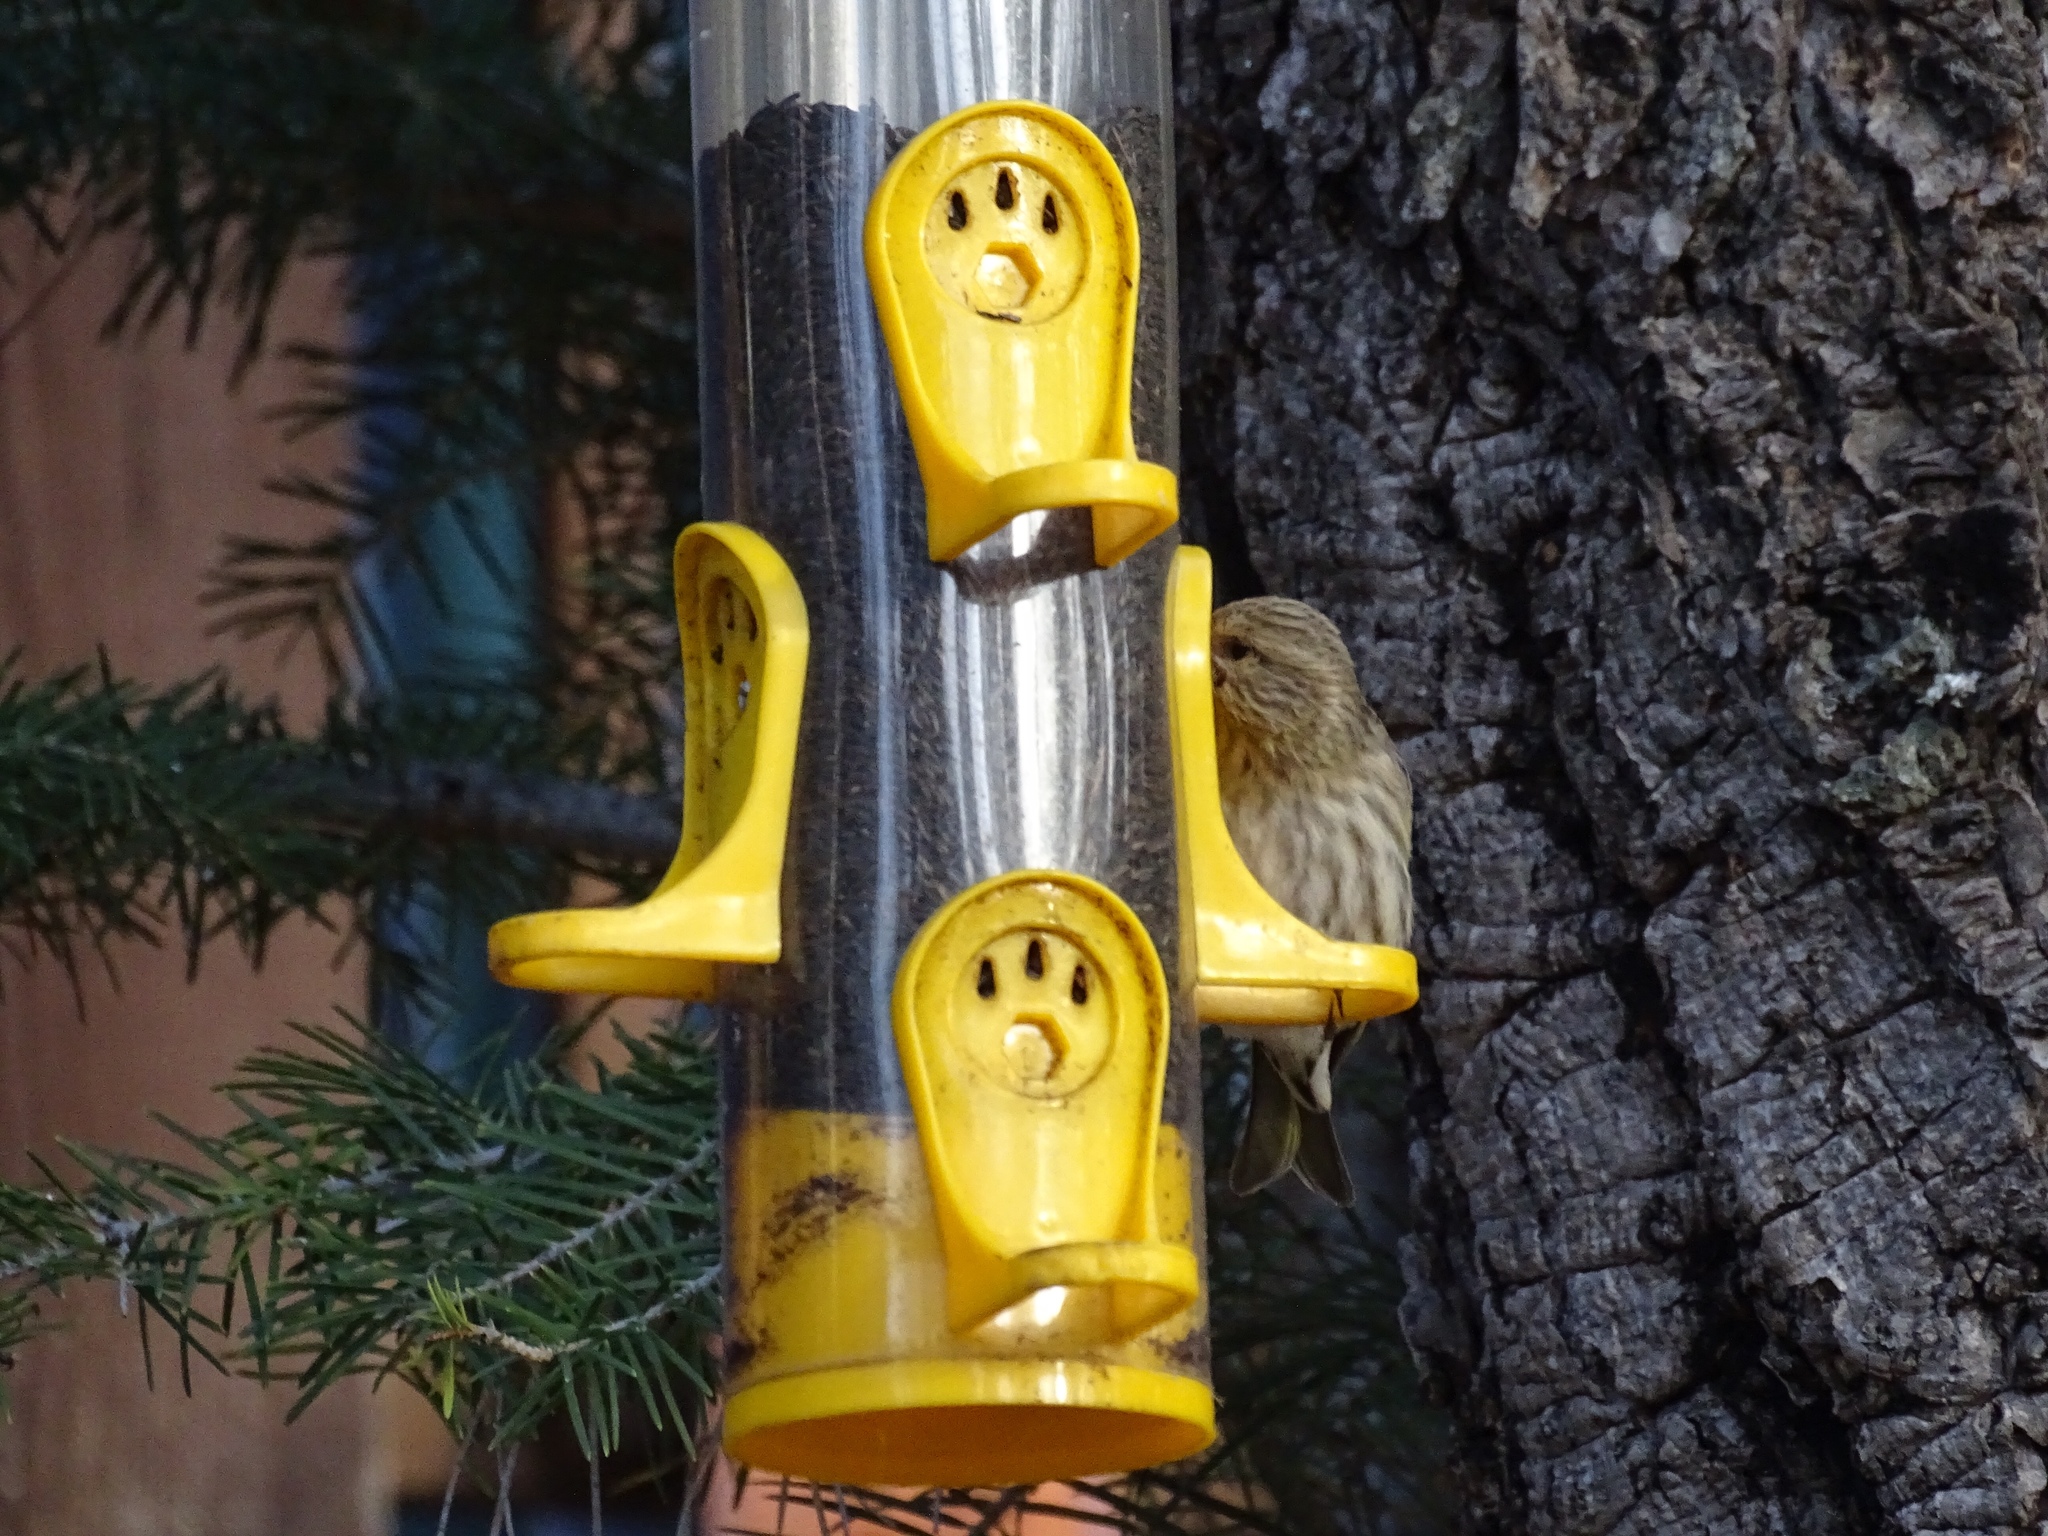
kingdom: Animalia
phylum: Chordata
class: Aves
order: Passeriformes
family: Fringillidae
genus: Spinus
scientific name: Spinus pinus
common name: Pine siskin
